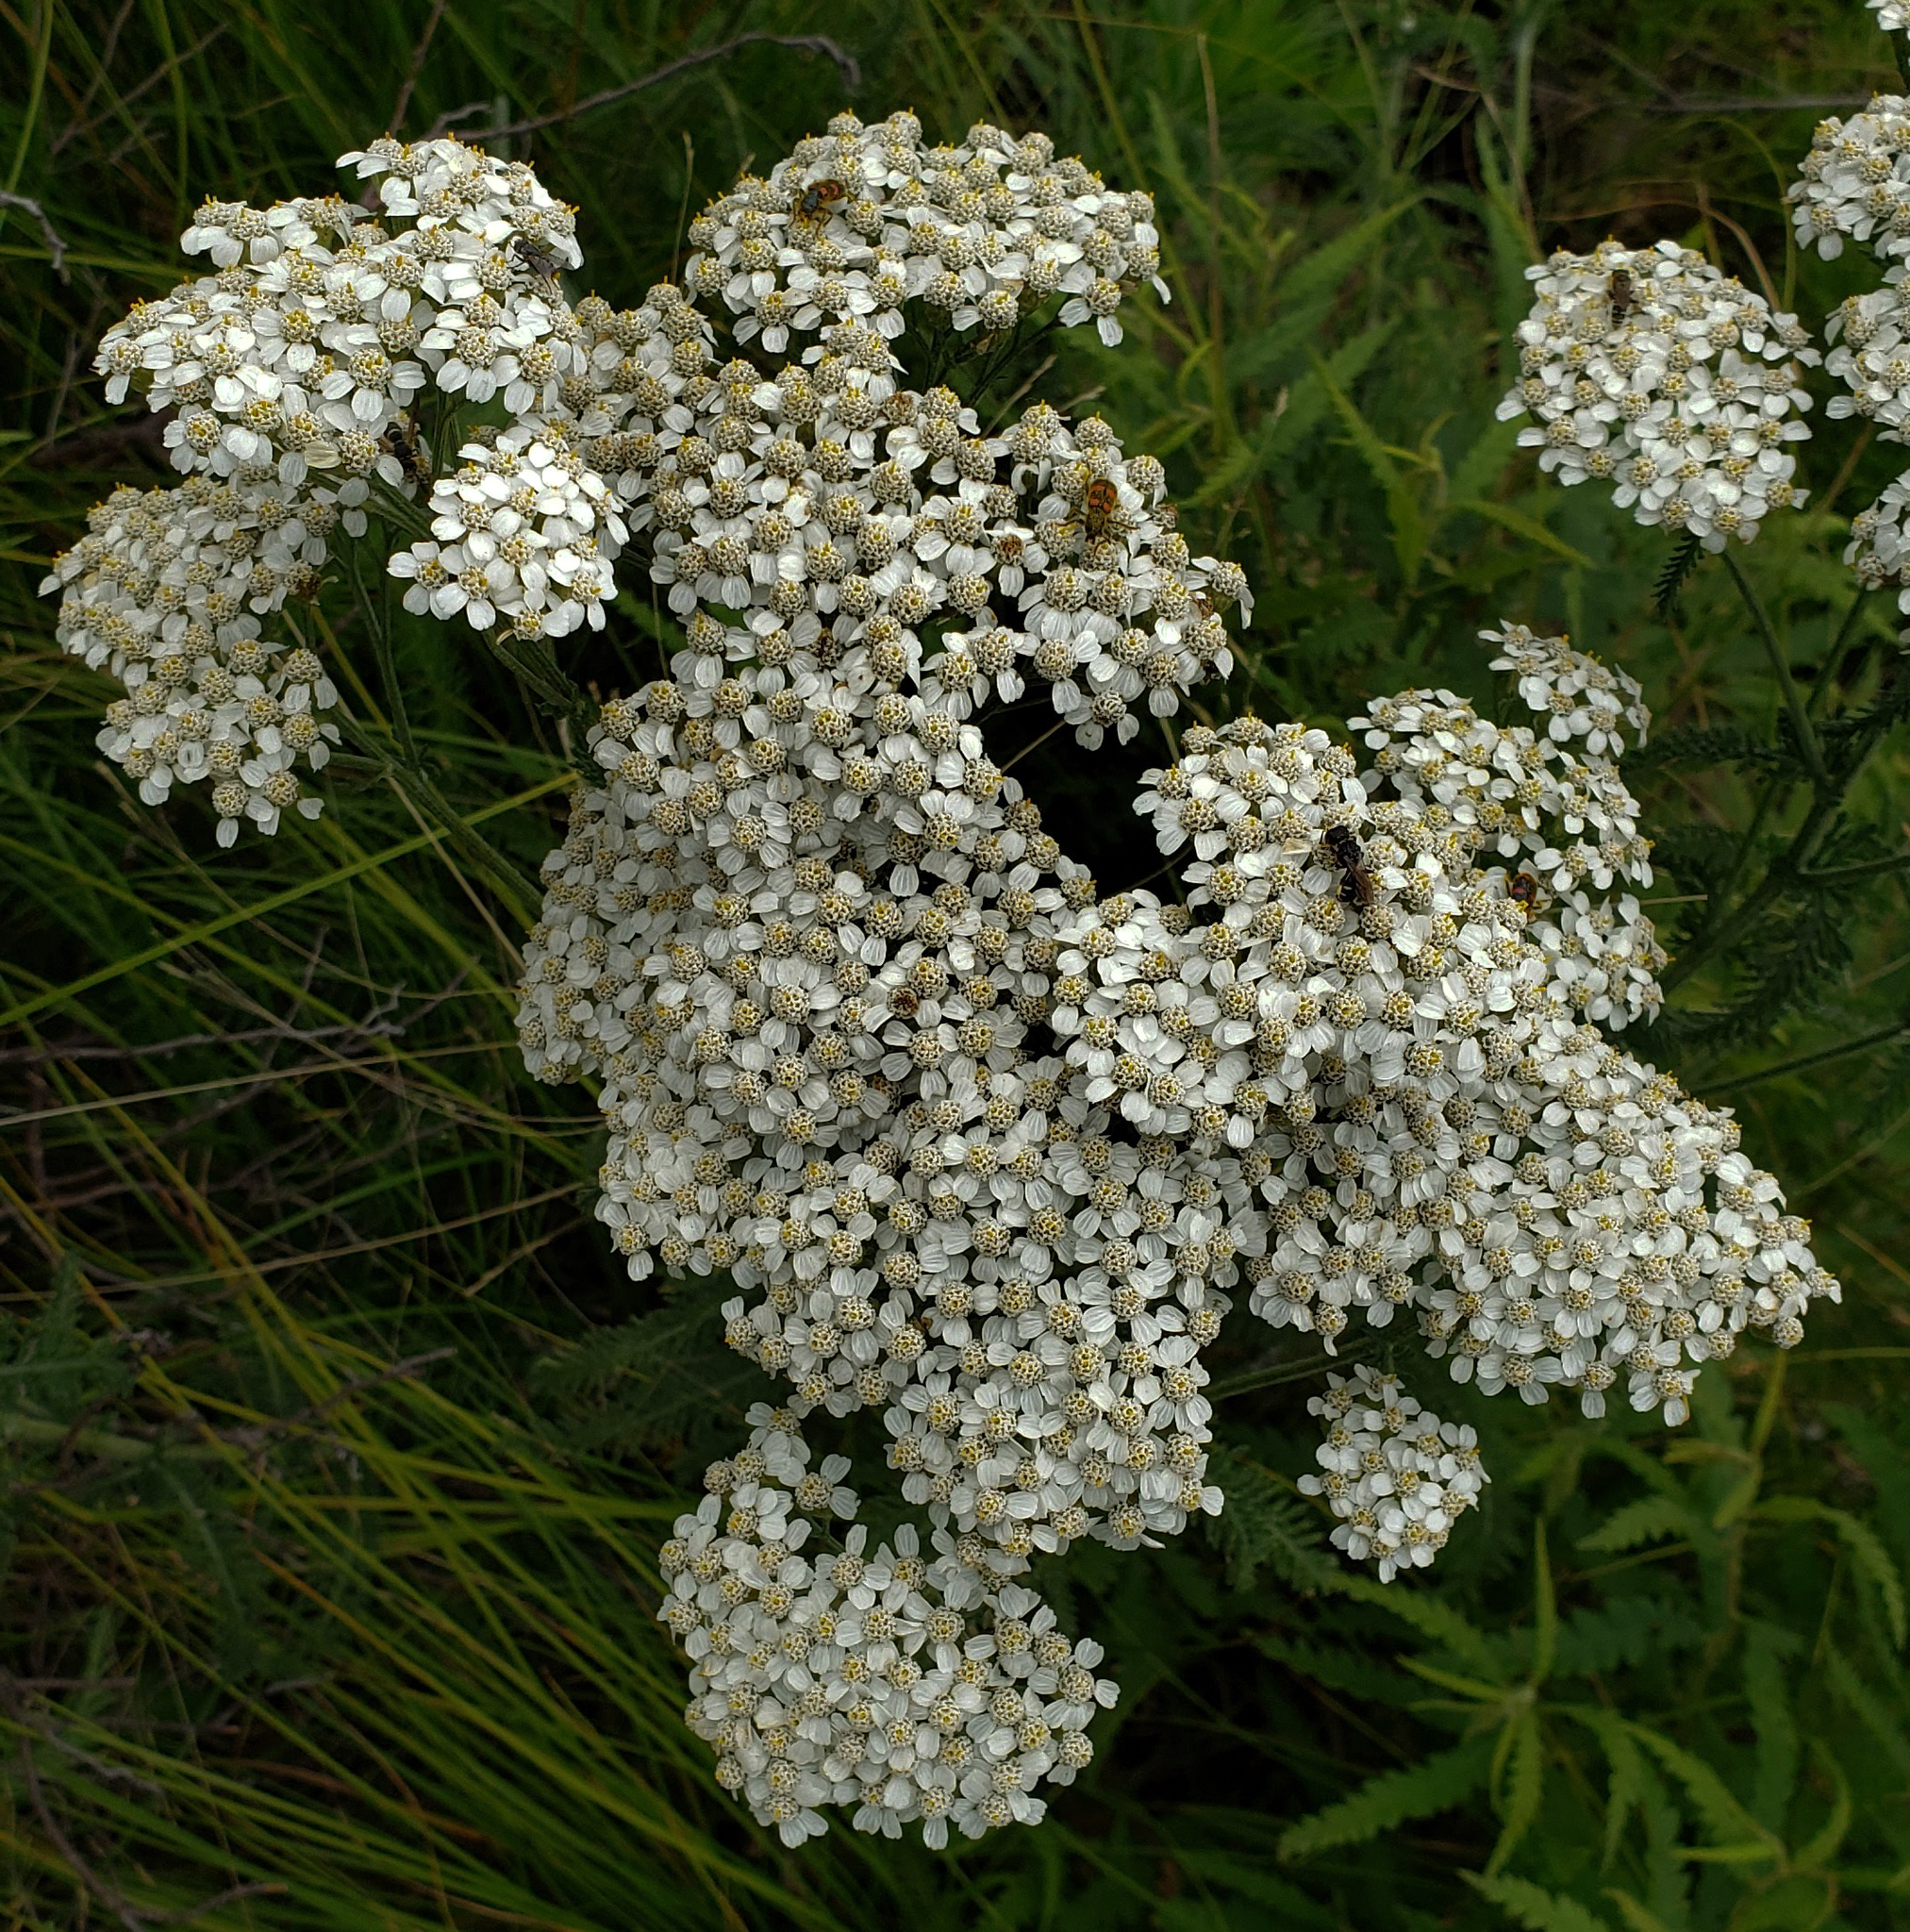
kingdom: Plantae
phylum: Tracheophyta
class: Magnoliopsida
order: Asterales
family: Asteraceae
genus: Achillea
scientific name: Achillea millefolium
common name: Yarrow
